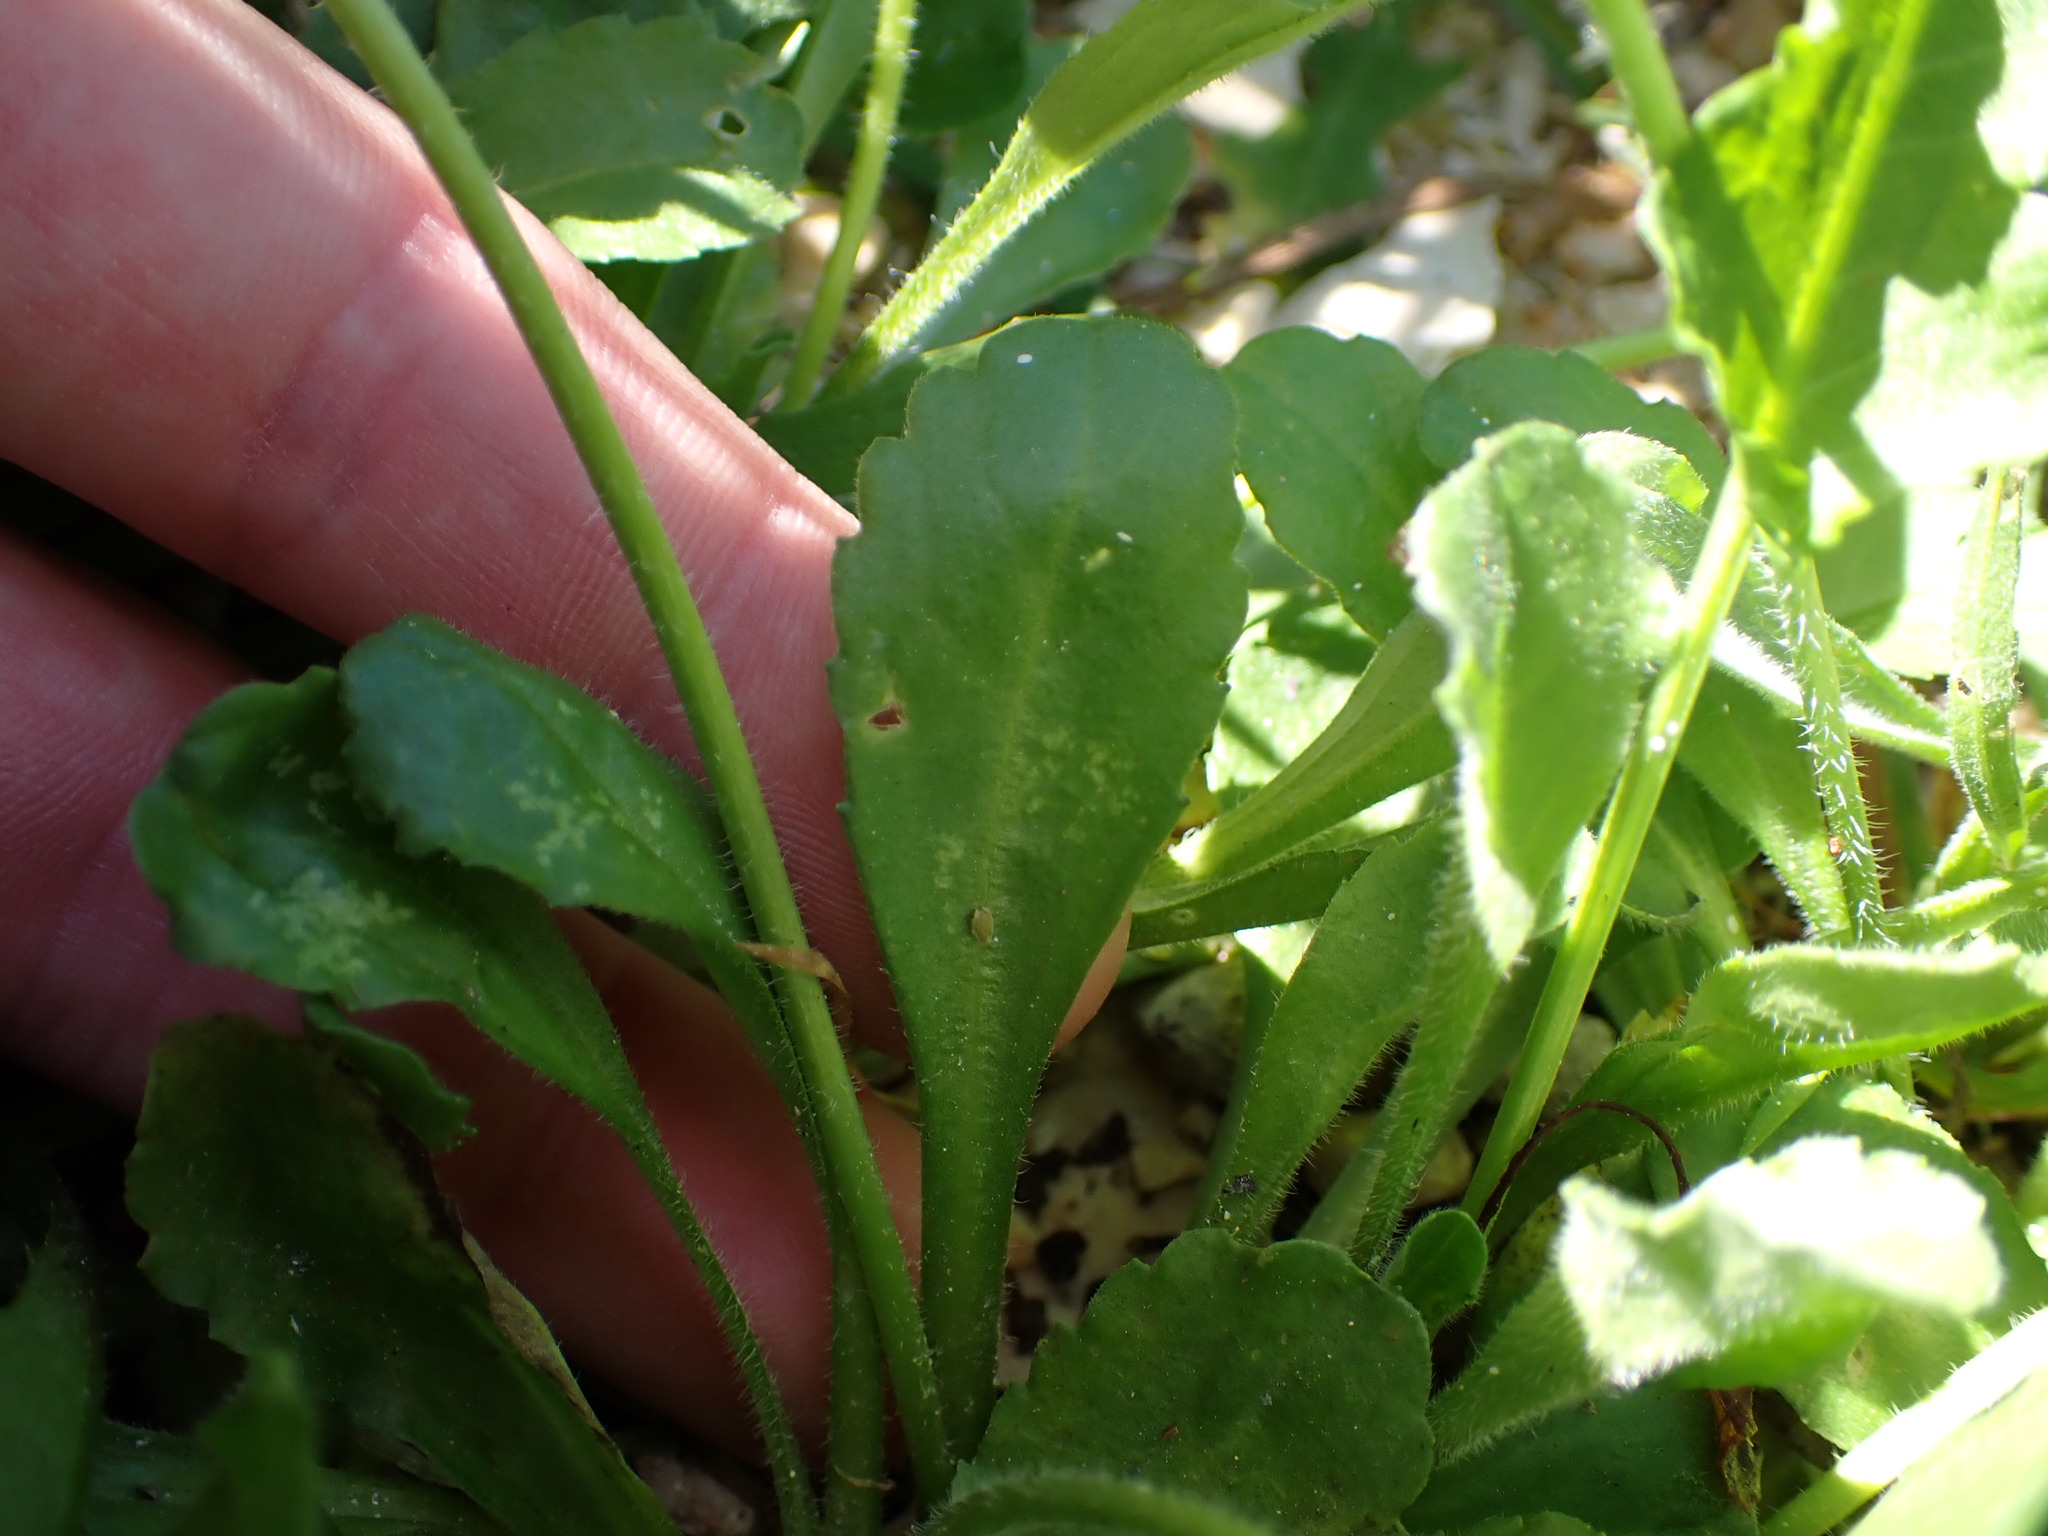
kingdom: Plantae
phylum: Tracheophyta
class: Magnoliopsida
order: Asterales
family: Asteraceae
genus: Bellis
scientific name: Bellis perennis
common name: Lawndaisy
